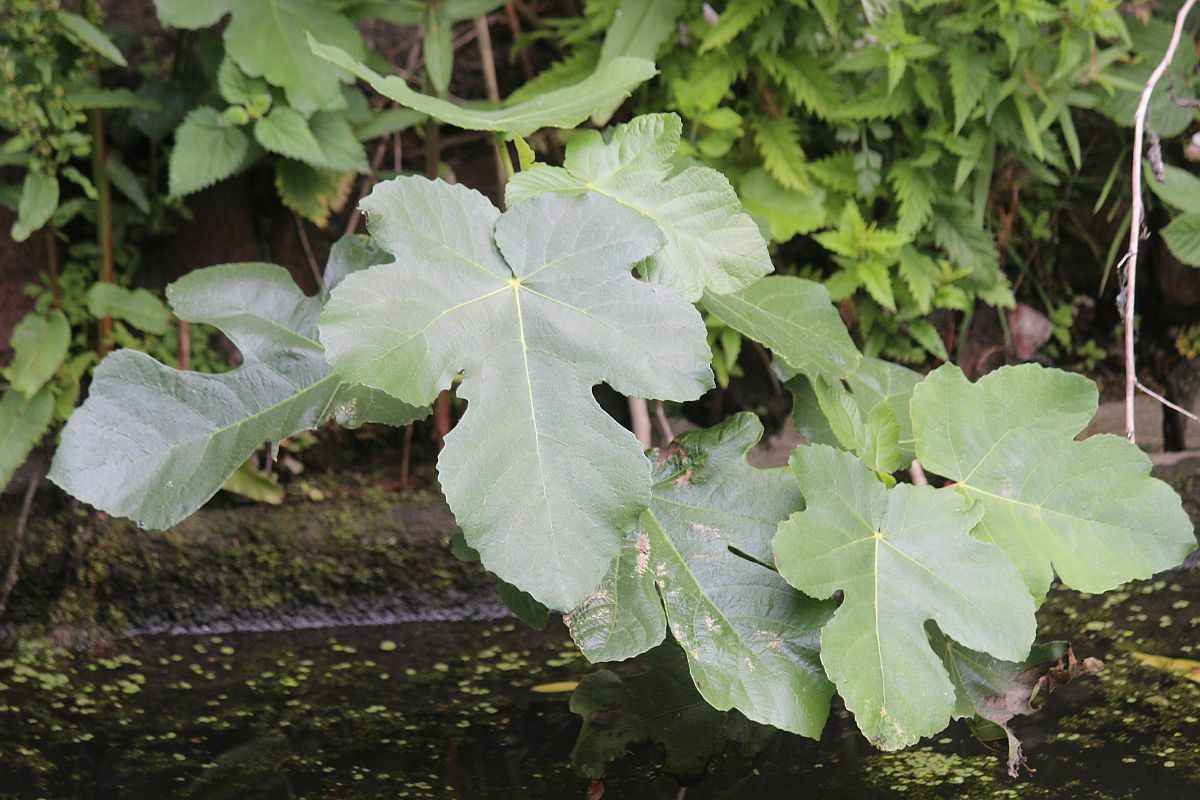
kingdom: Plantae
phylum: Tracheophyta
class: Magnoliopsida
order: Rosales
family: Moraceae
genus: Ficus
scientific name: Ficus carica
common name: Fig
